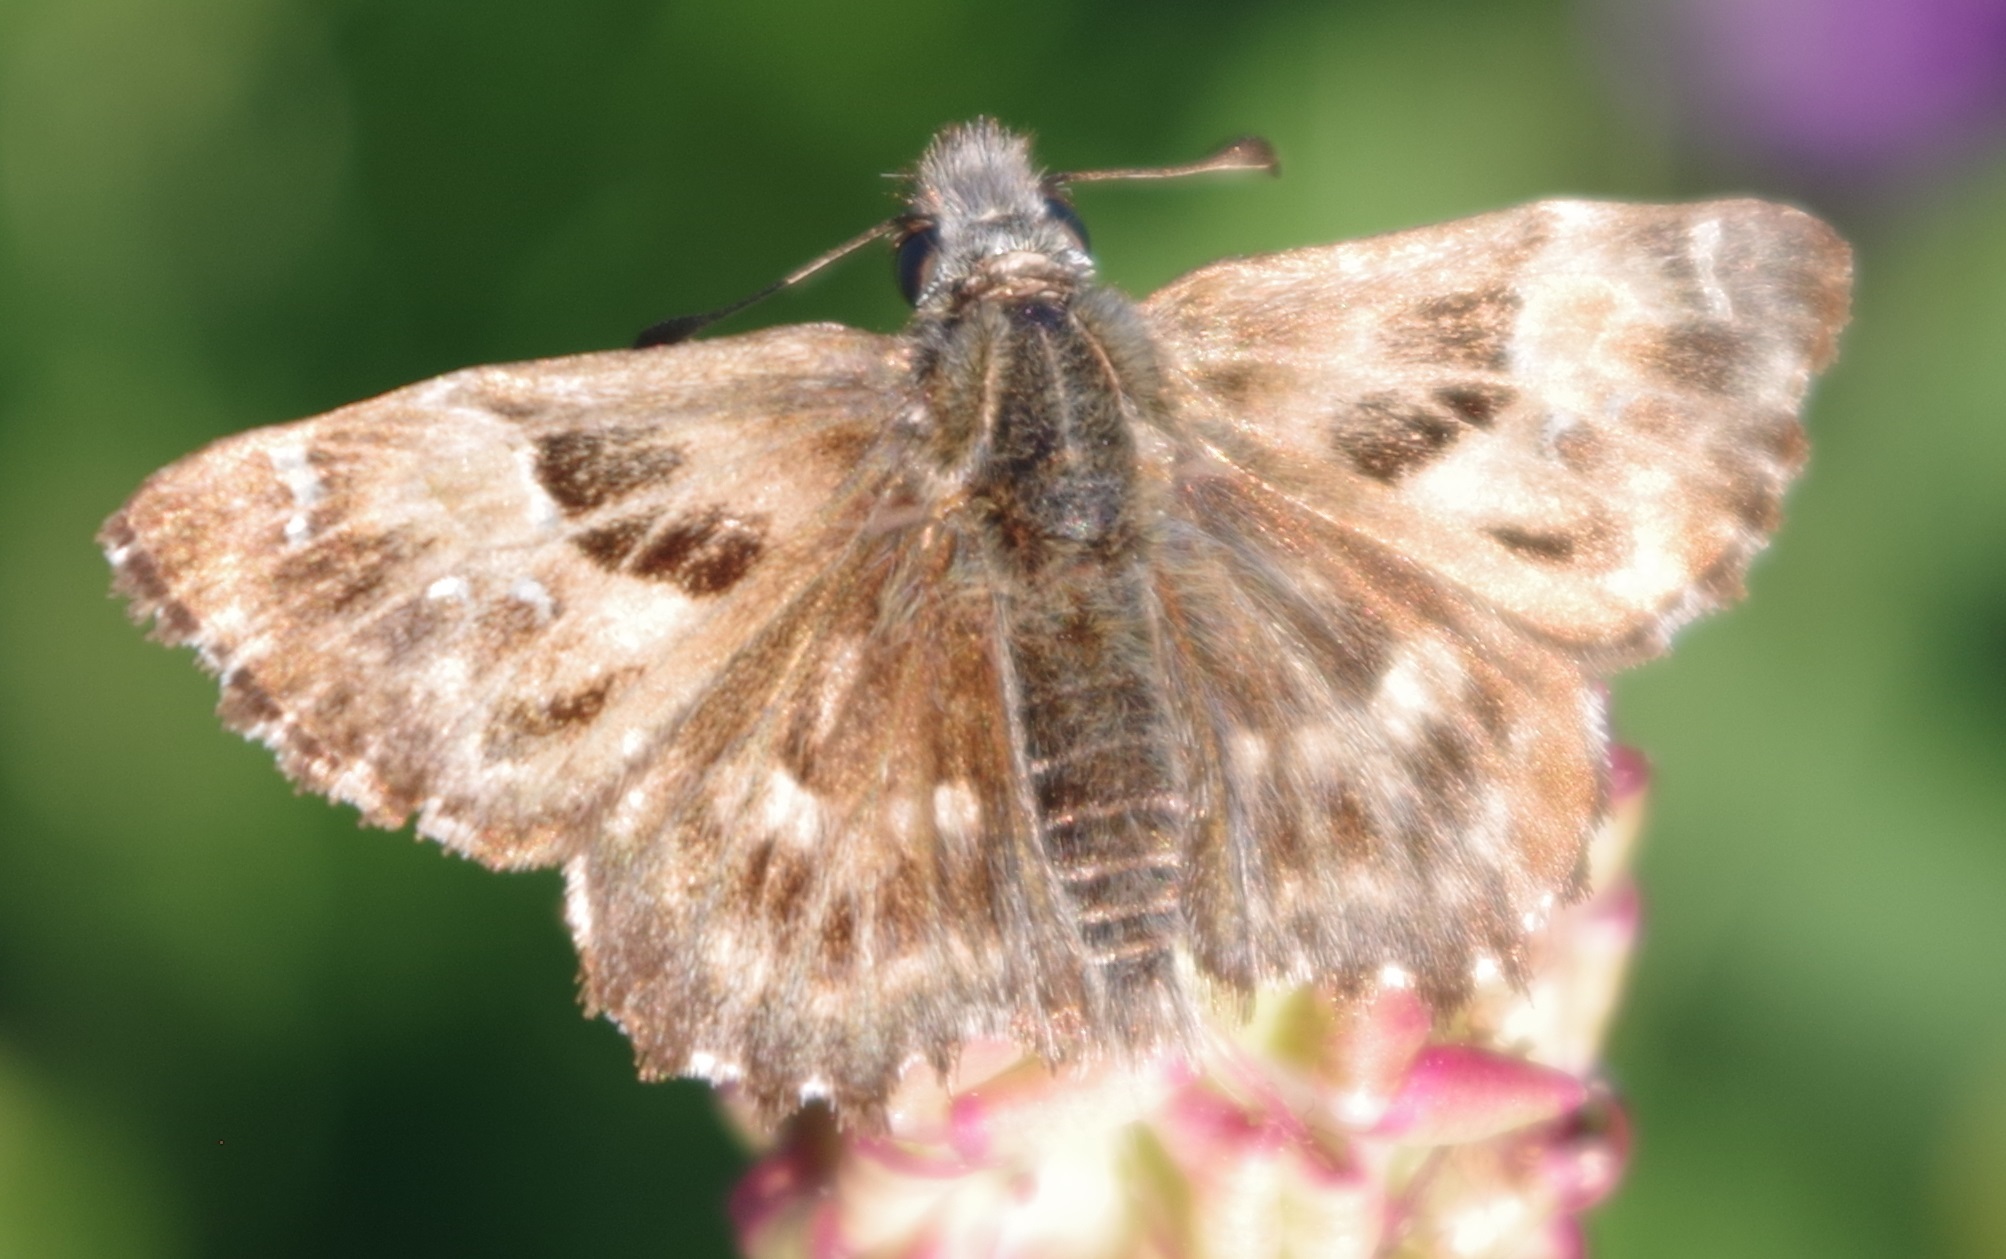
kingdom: Animalia
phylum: Arthropoda
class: Insecta
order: Lepidoptera
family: Hesperiidae
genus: Carcharodus
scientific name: Carcharodus alceae
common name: Mallow skipper
